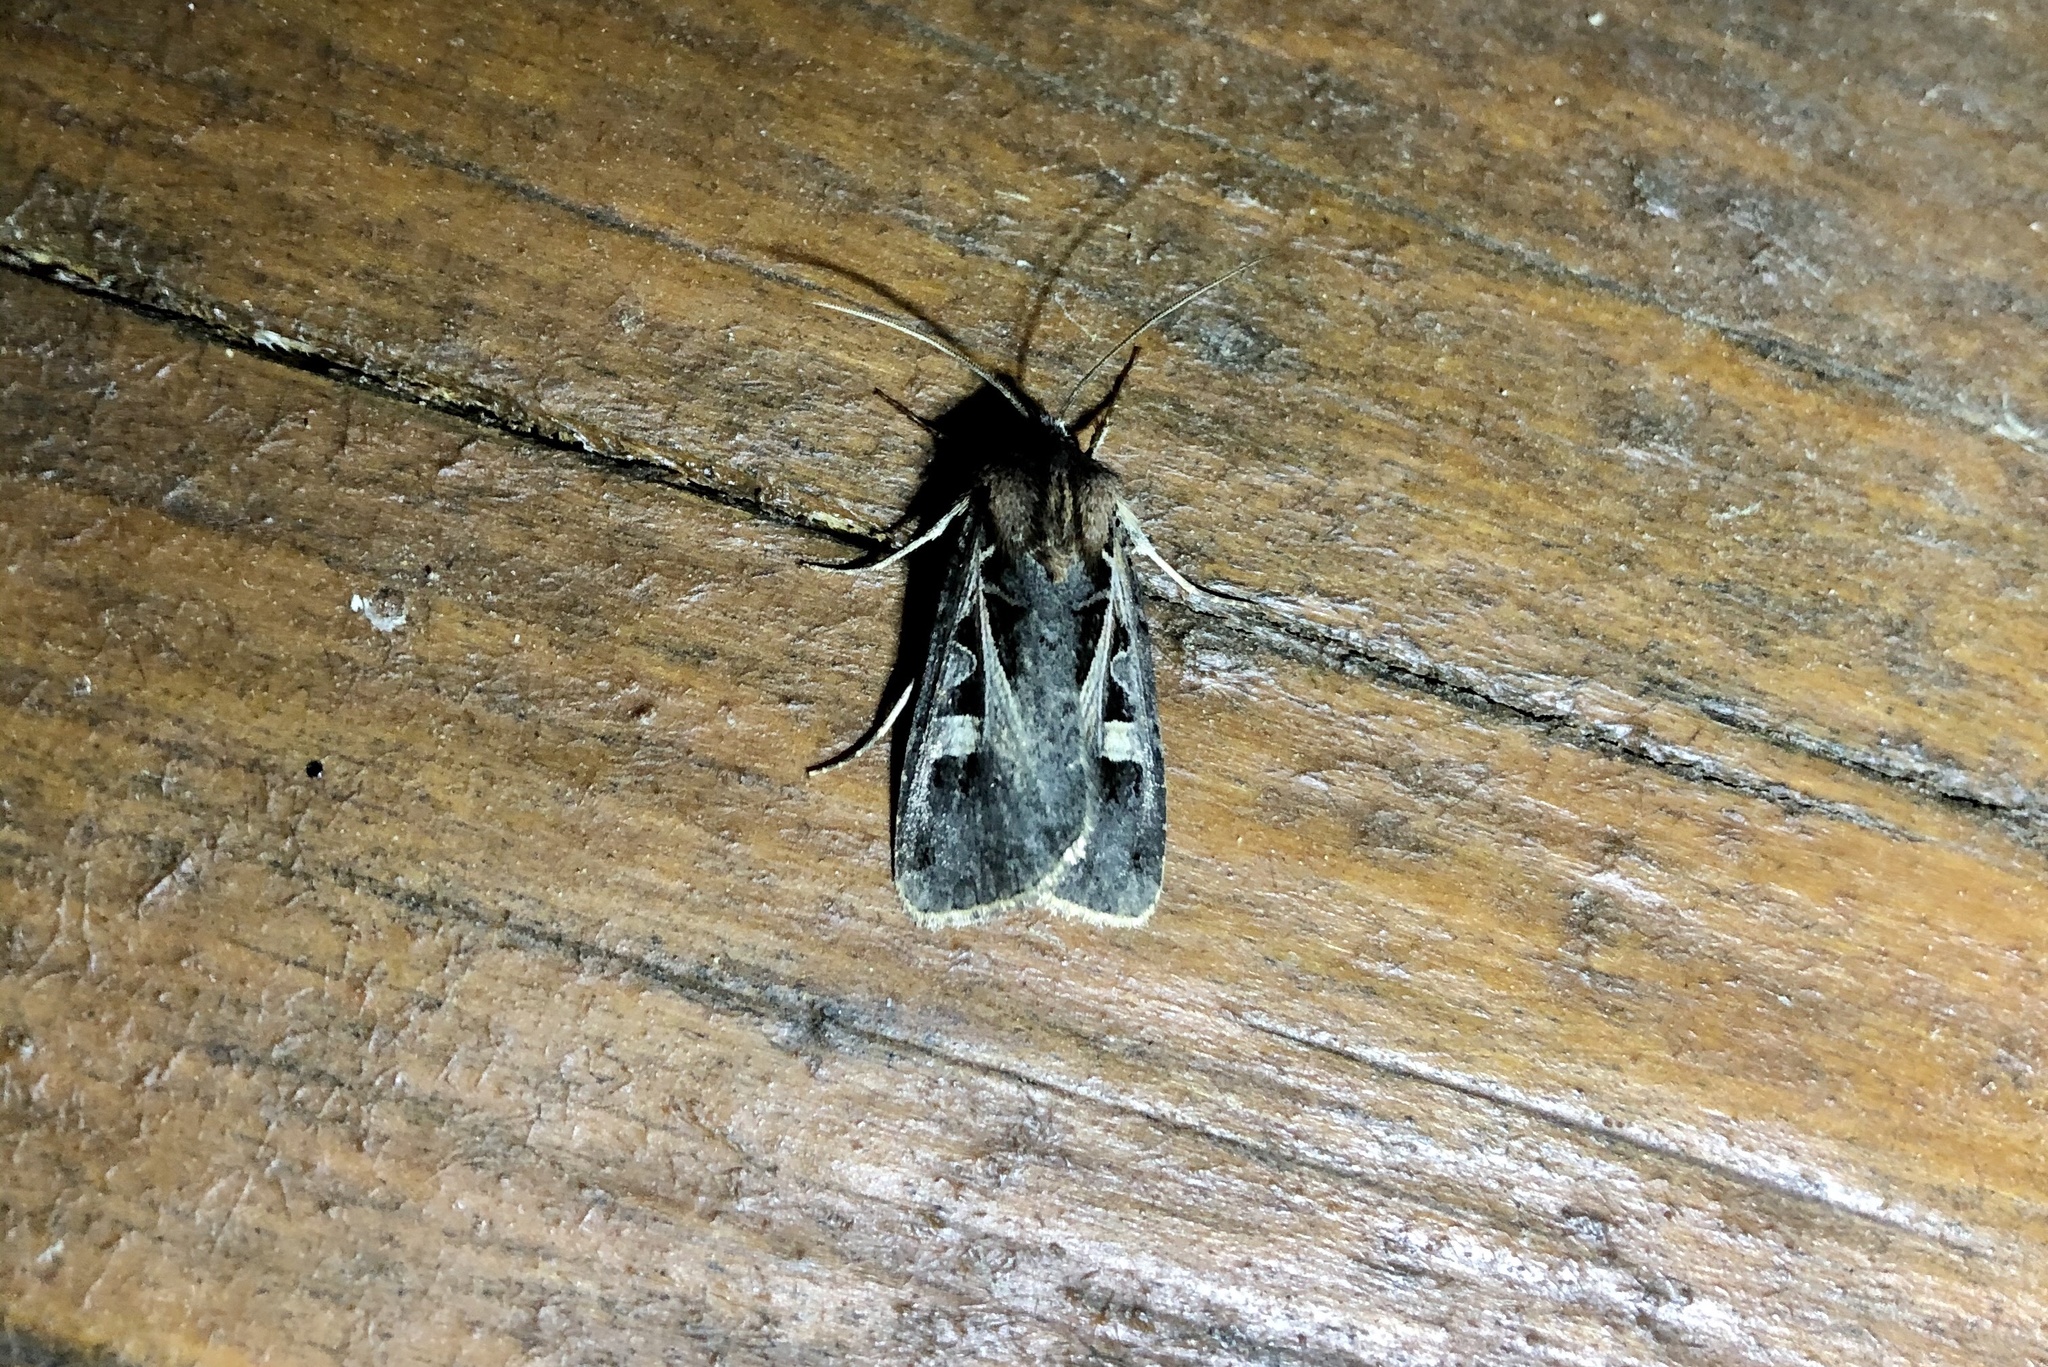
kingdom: Animalia
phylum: Arthropoda
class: Insecta
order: Lepidoptera
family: Noctuidae
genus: Feltia
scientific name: Feltia herilis
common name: Master's dart
